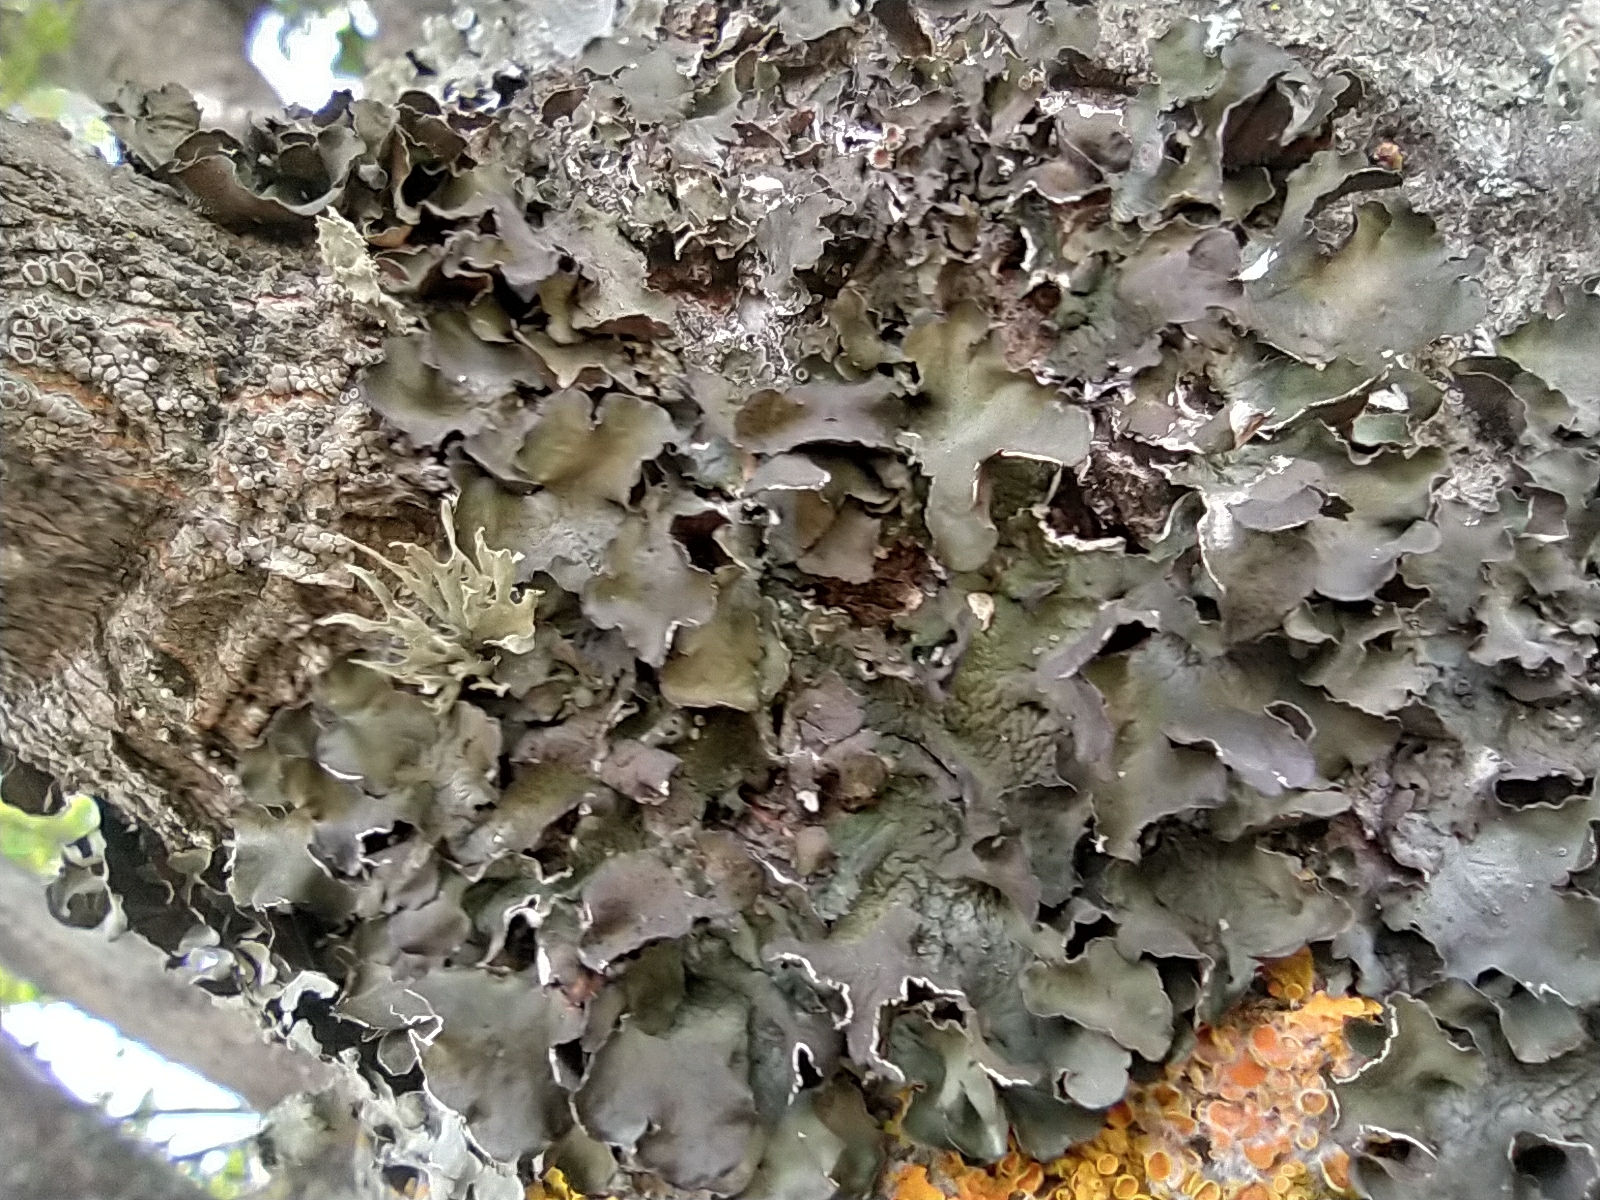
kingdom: Fungi
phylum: Ascomycota
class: Lecanoromycetes
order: Lecanorales
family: Parmeliaceae
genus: Pleurosticta
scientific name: Pleurosticta acetabulum
